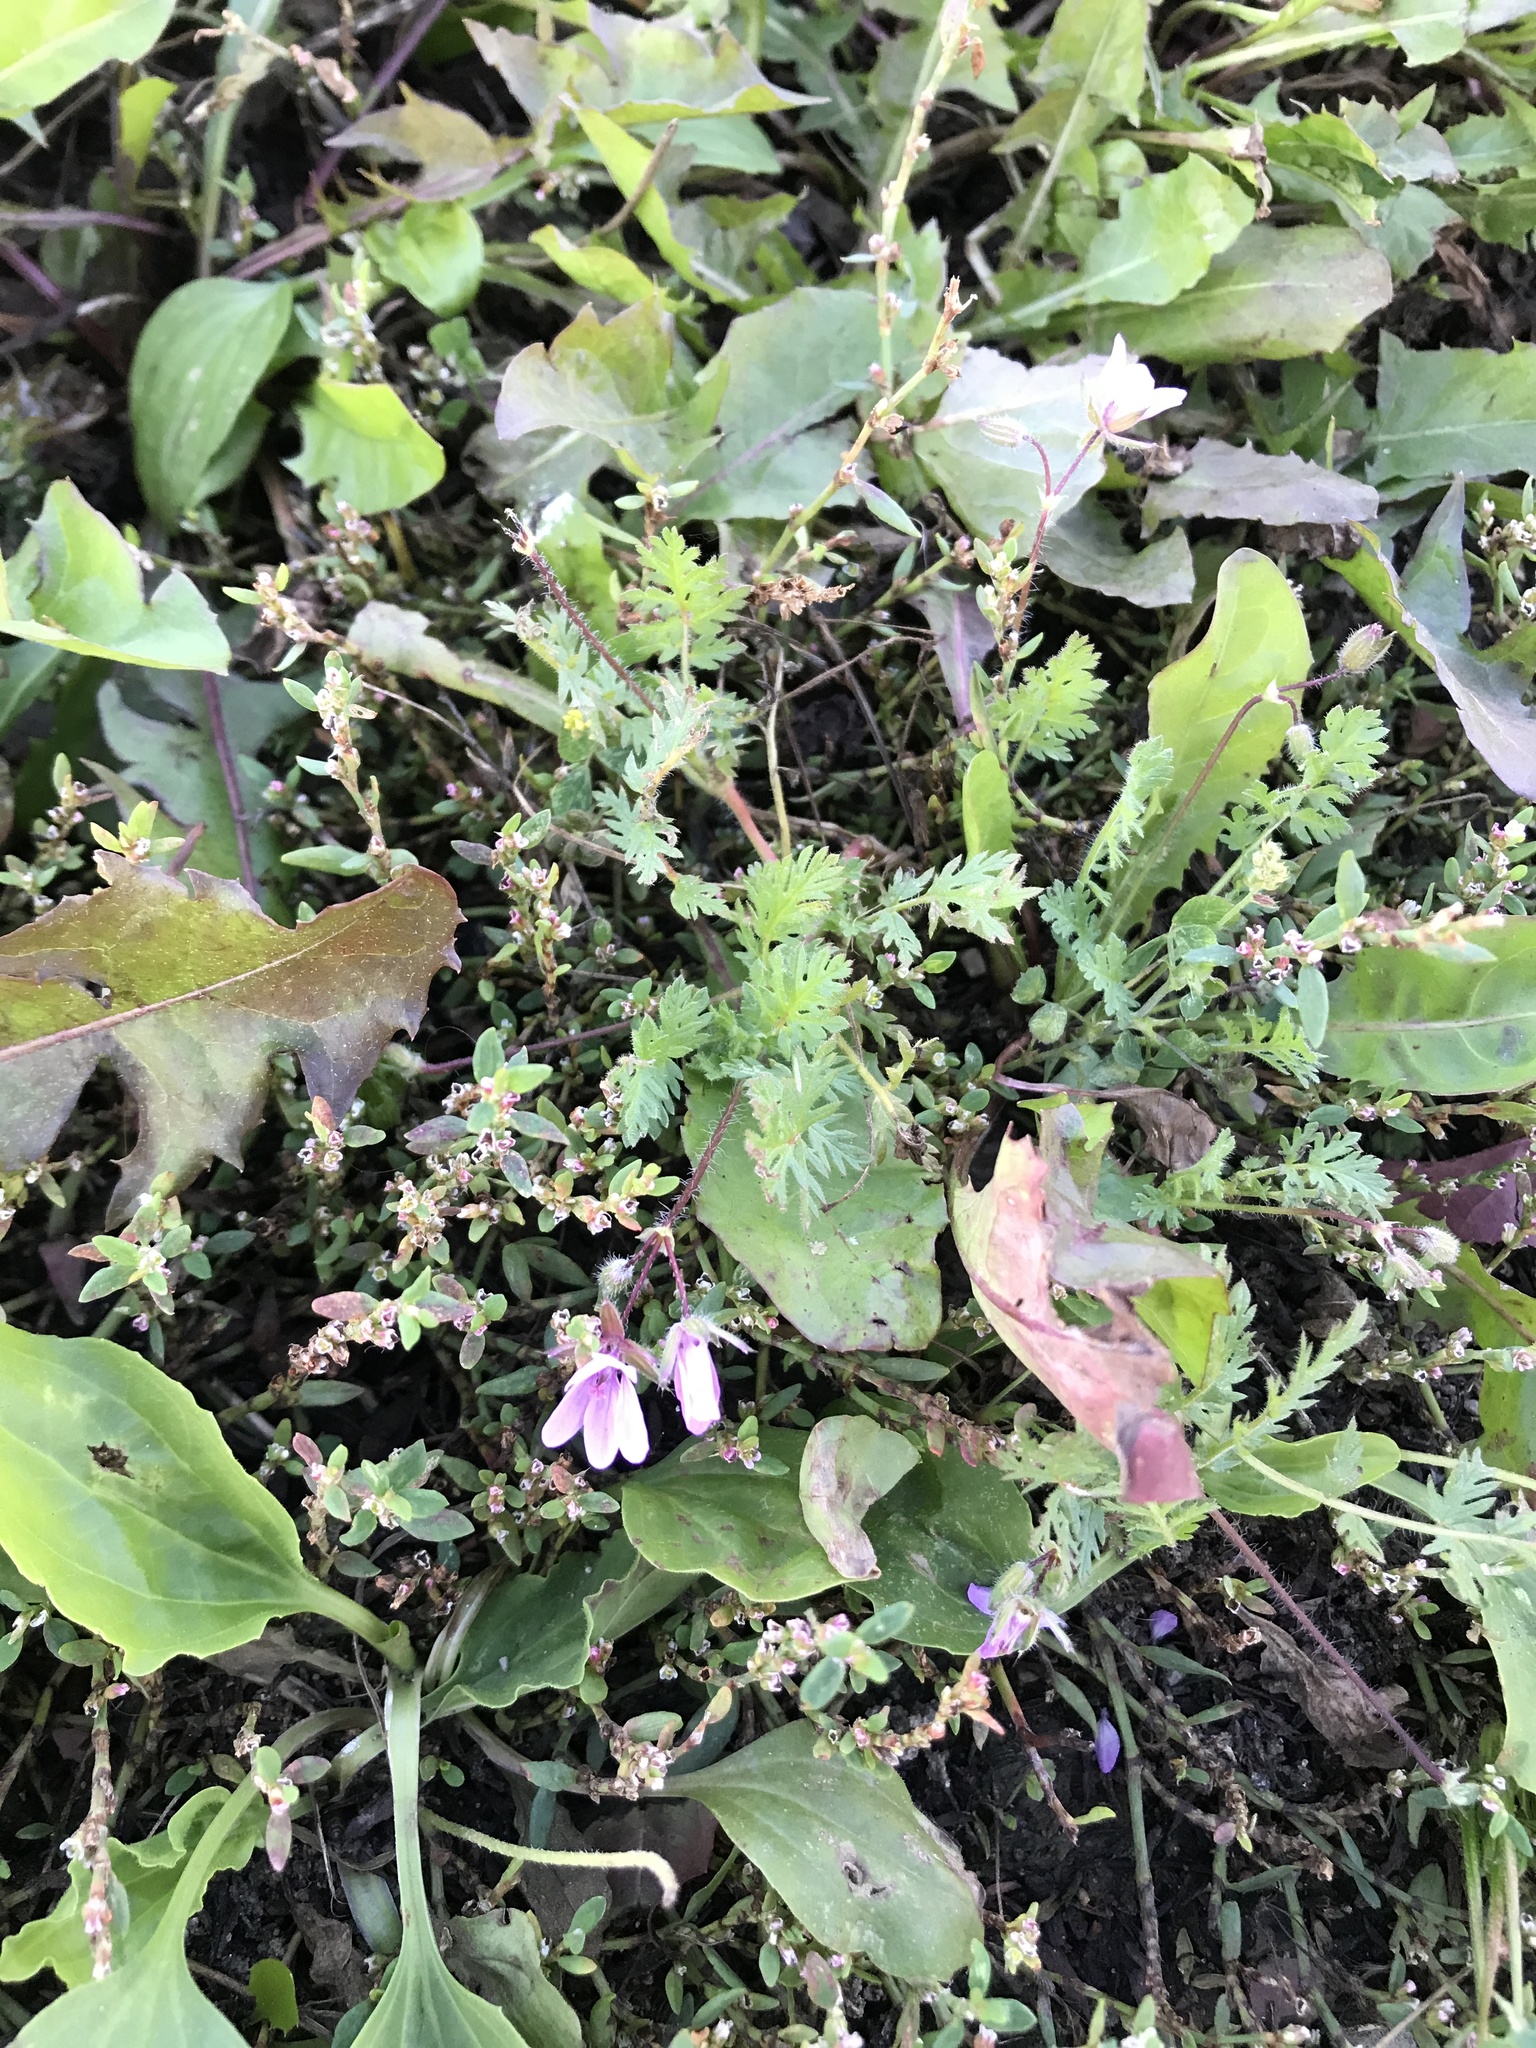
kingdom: Plantae
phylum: Tracheophyta
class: Magnoliopsida
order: Geraniales
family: Geraniaceae
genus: Erodium
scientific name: Erodium cicutarium
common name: Common stork's-bill
